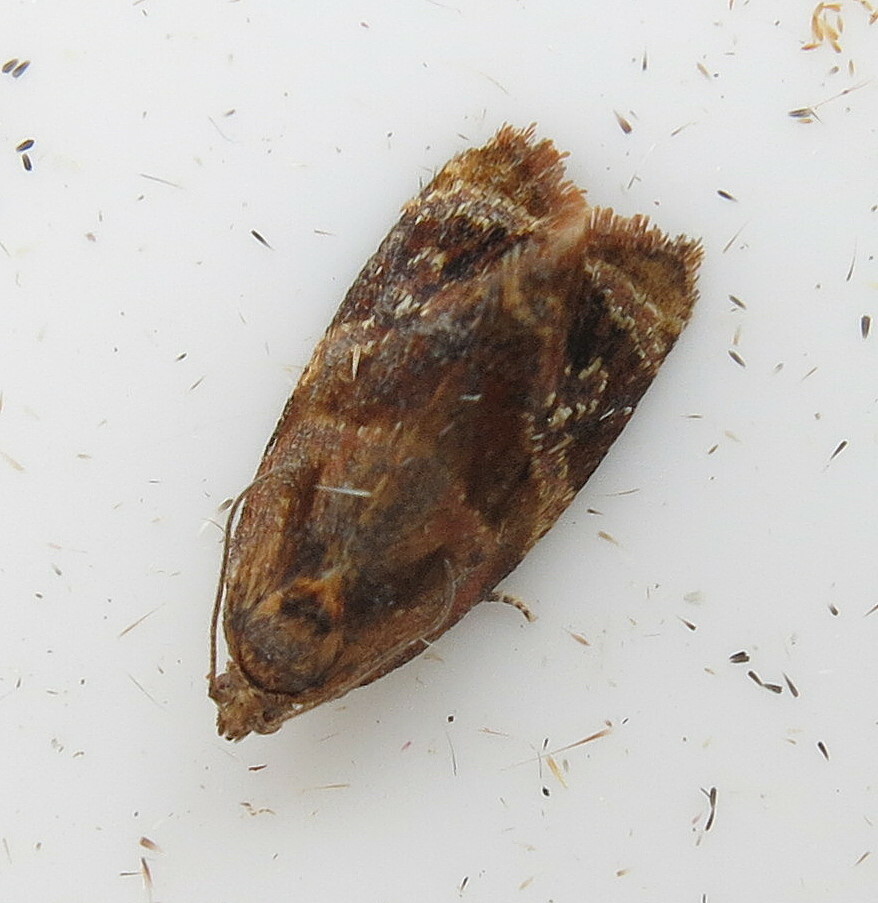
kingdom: Animalia
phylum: Arthropoda
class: Insecta
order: Lepidoptera
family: Tortricidae
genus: Ditula
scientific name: Ditula angustiorana
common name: Red-barred tortrix
